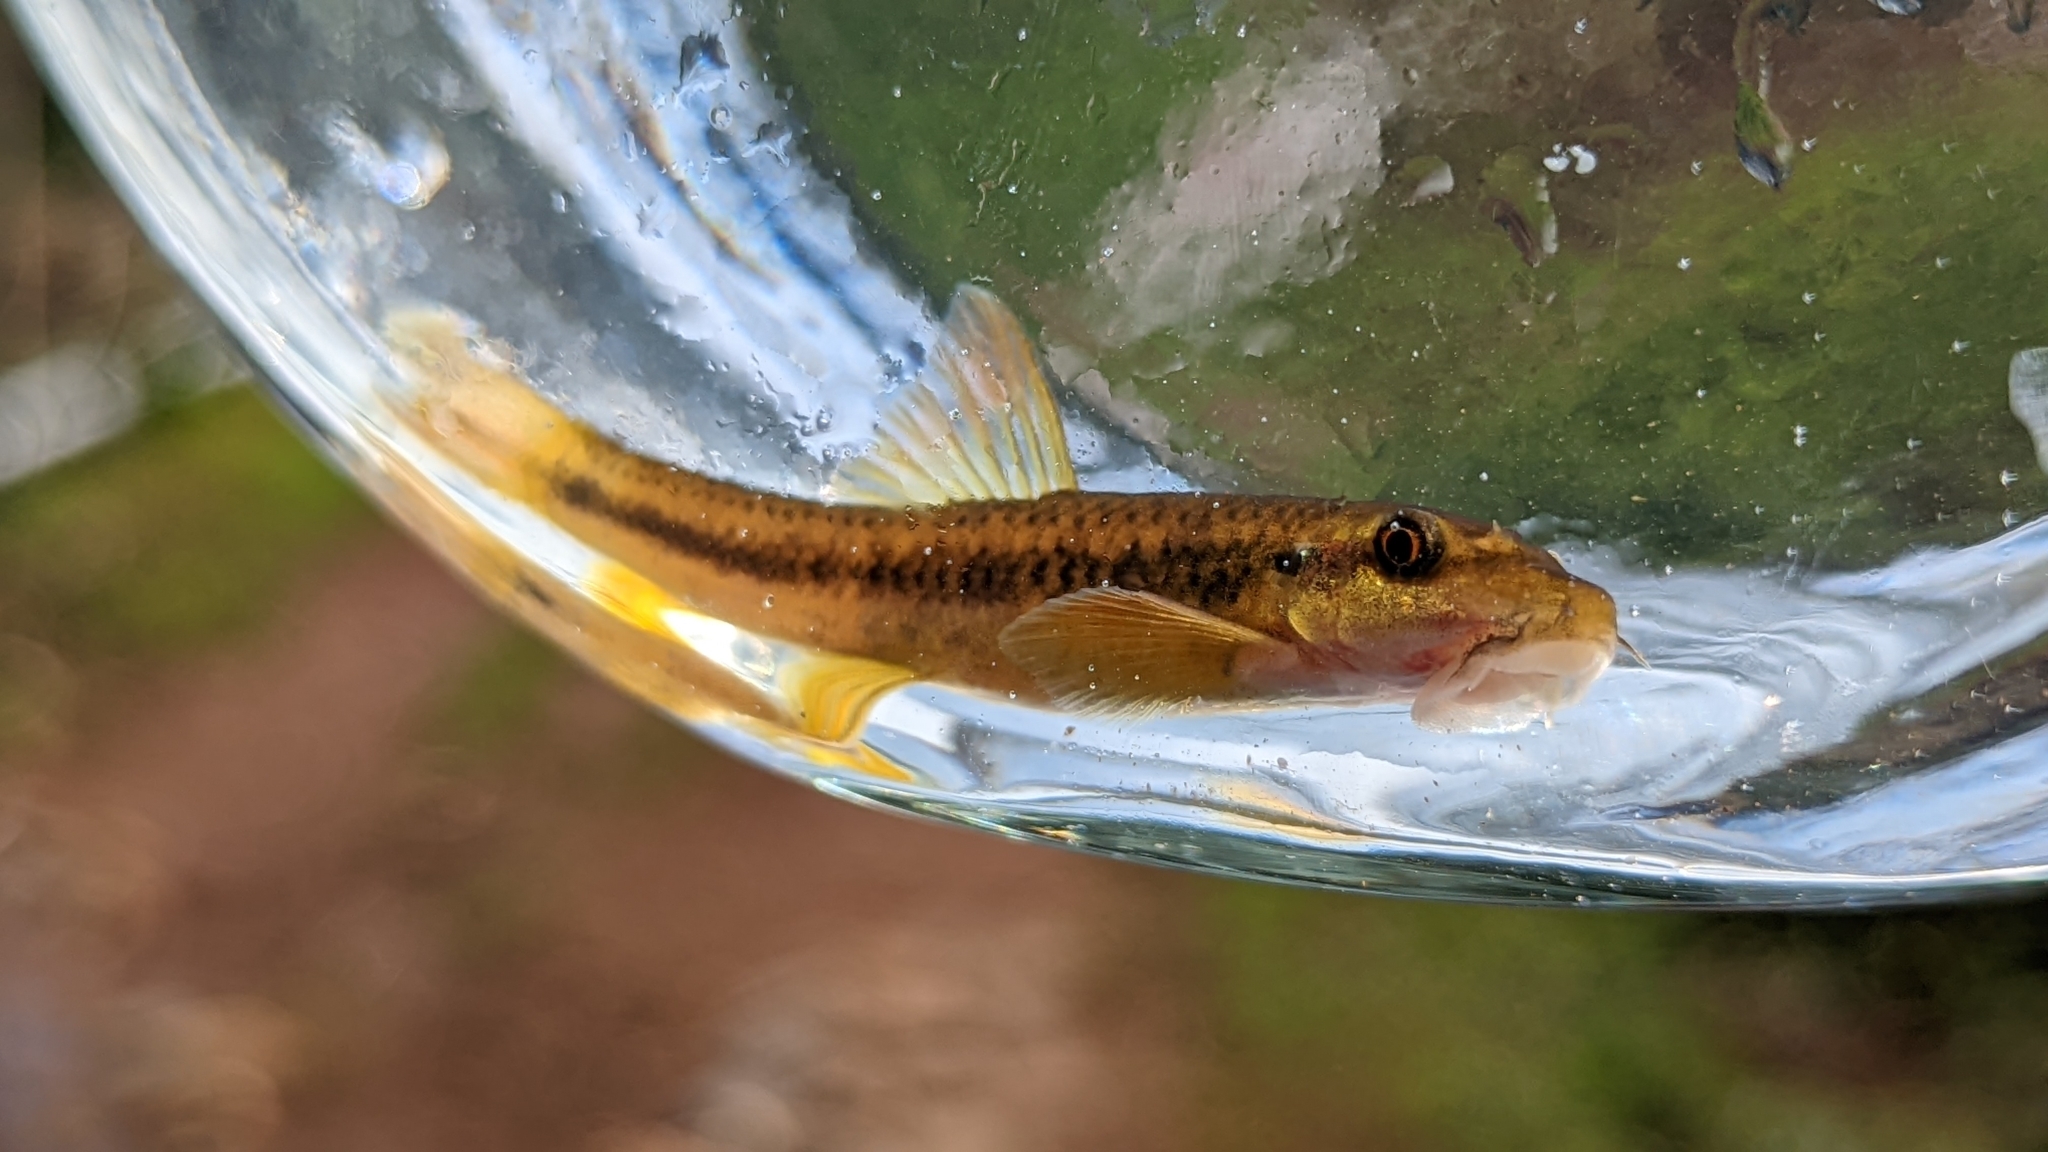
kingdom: Animalia
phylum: Chordata
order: Cypriniformes
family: Cyprinidae
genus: Garra
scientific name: Garra mullya
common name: Mullya garra
